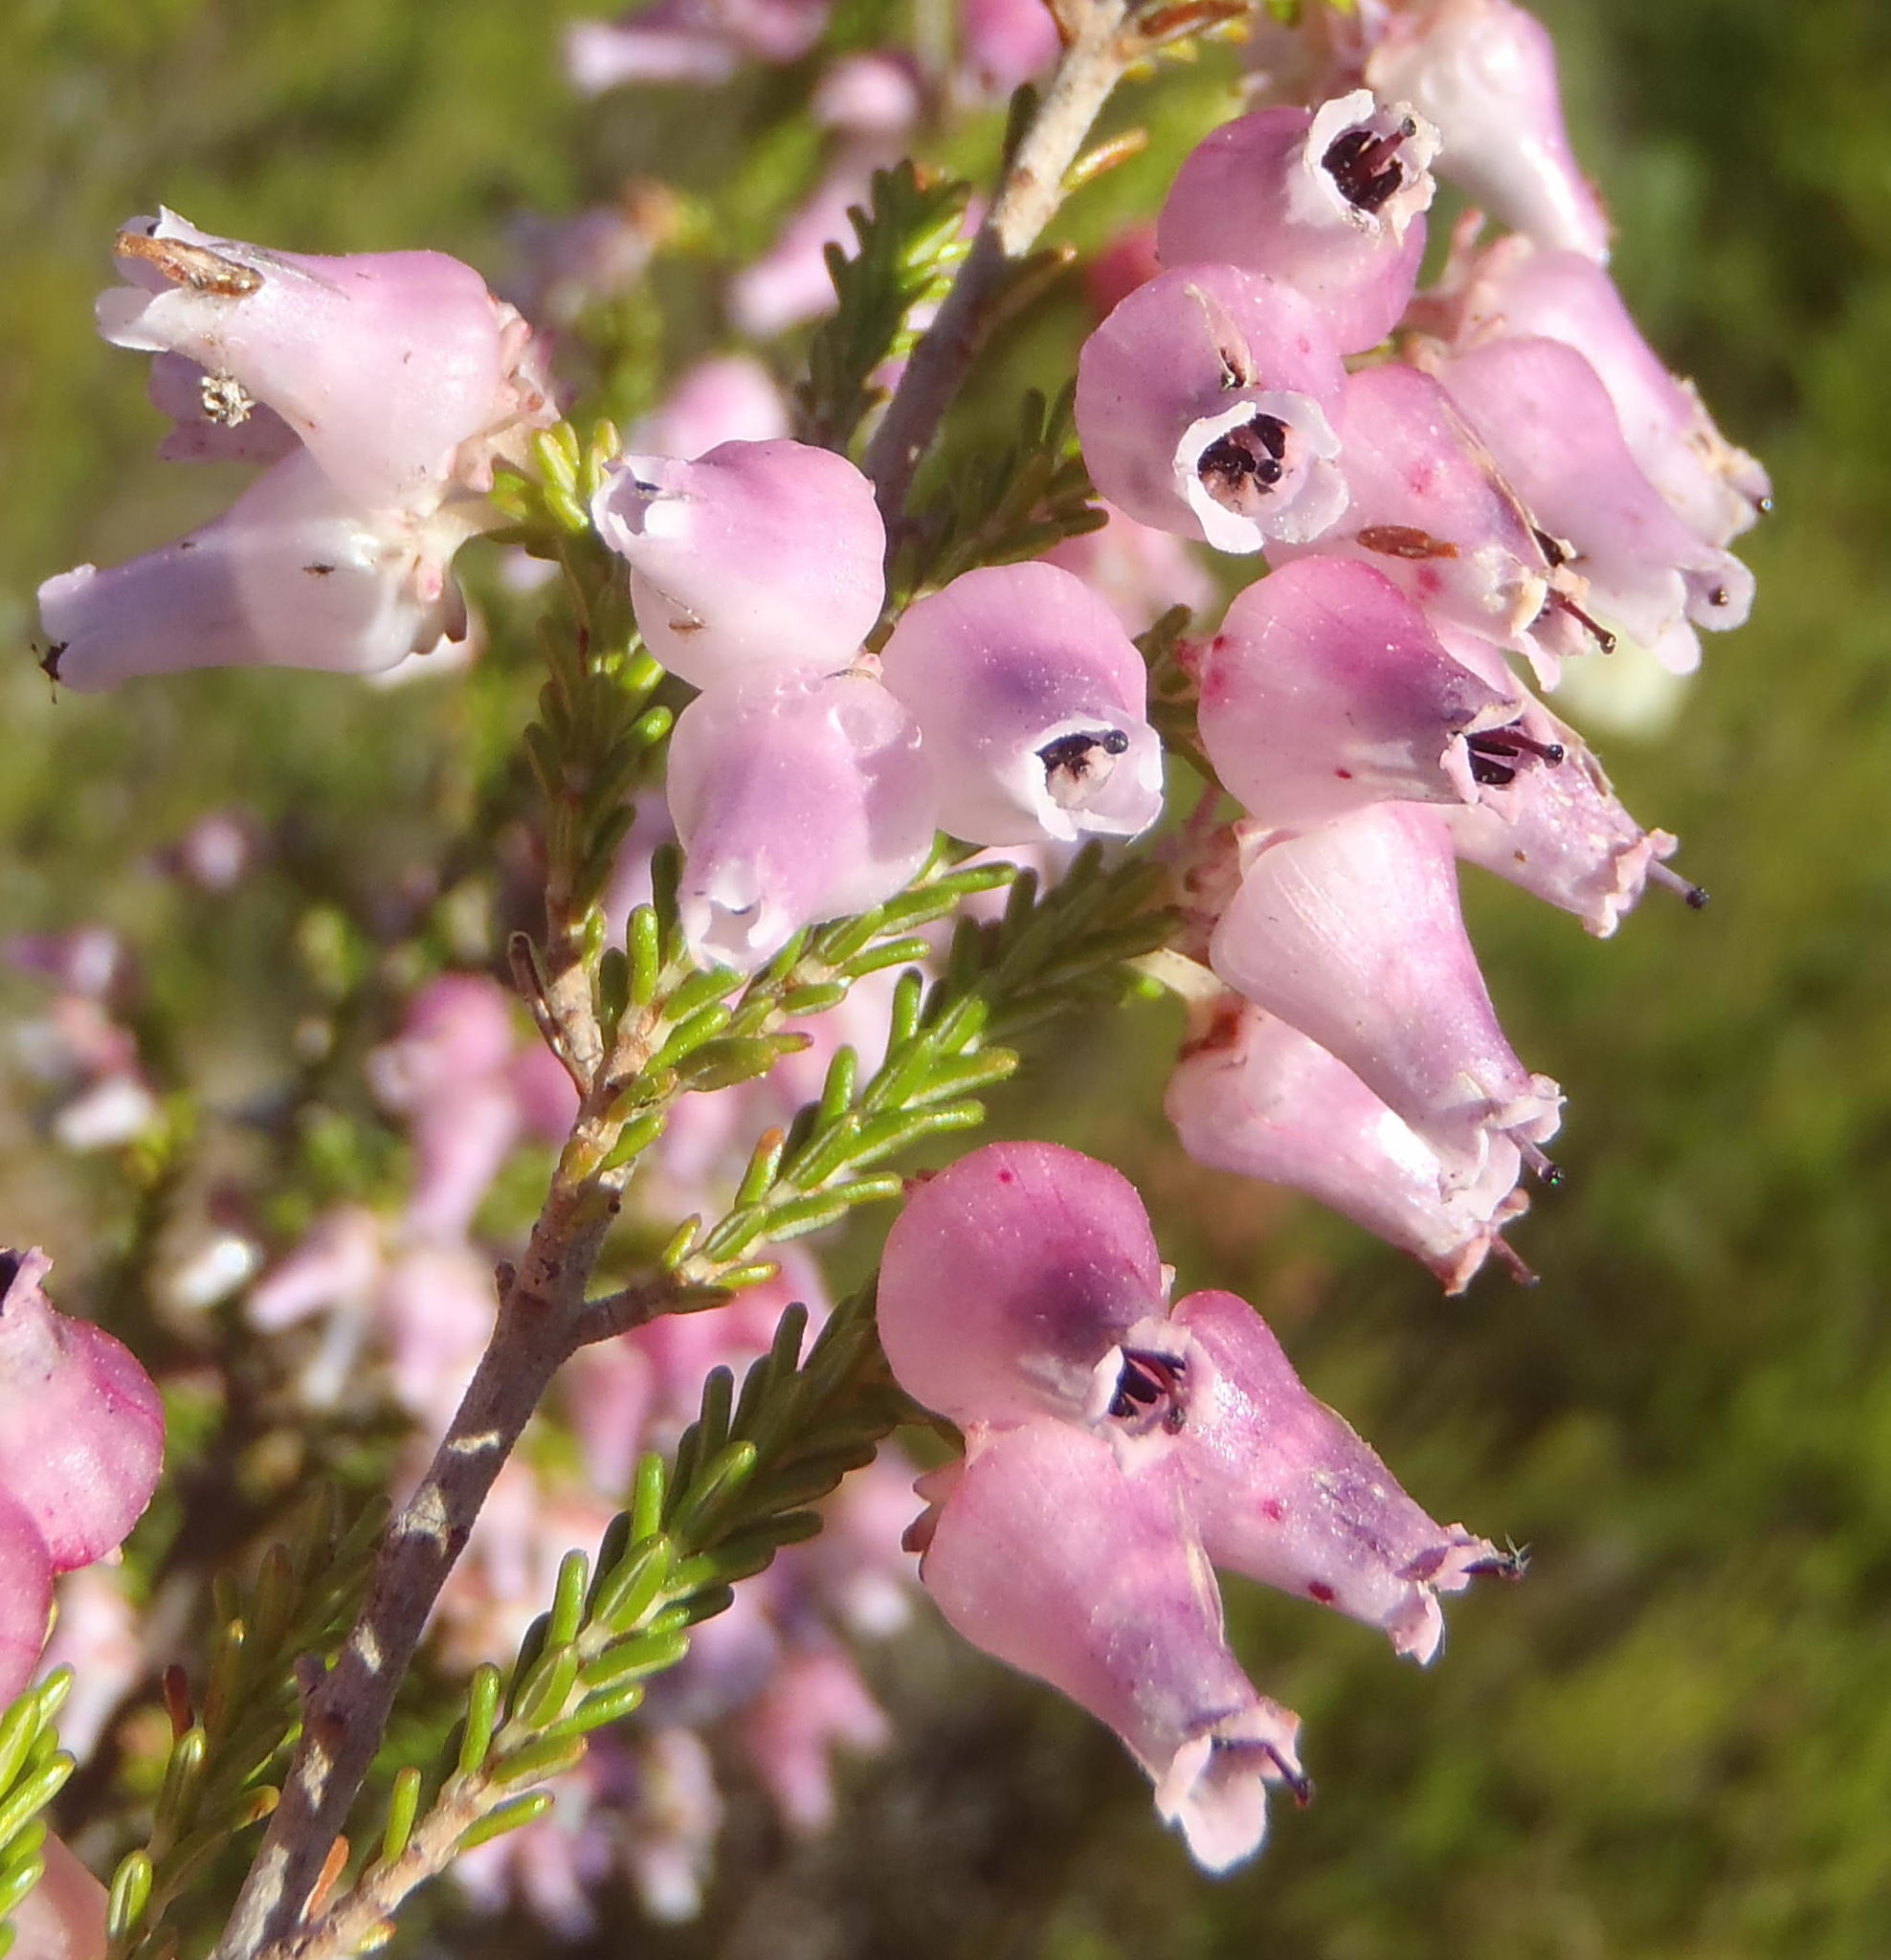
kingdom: Plantae
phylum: Tracheophyta
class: Magnoliopsida
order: Ericales
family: Ericaceae
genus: Erica
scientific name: Erica glomiflora
